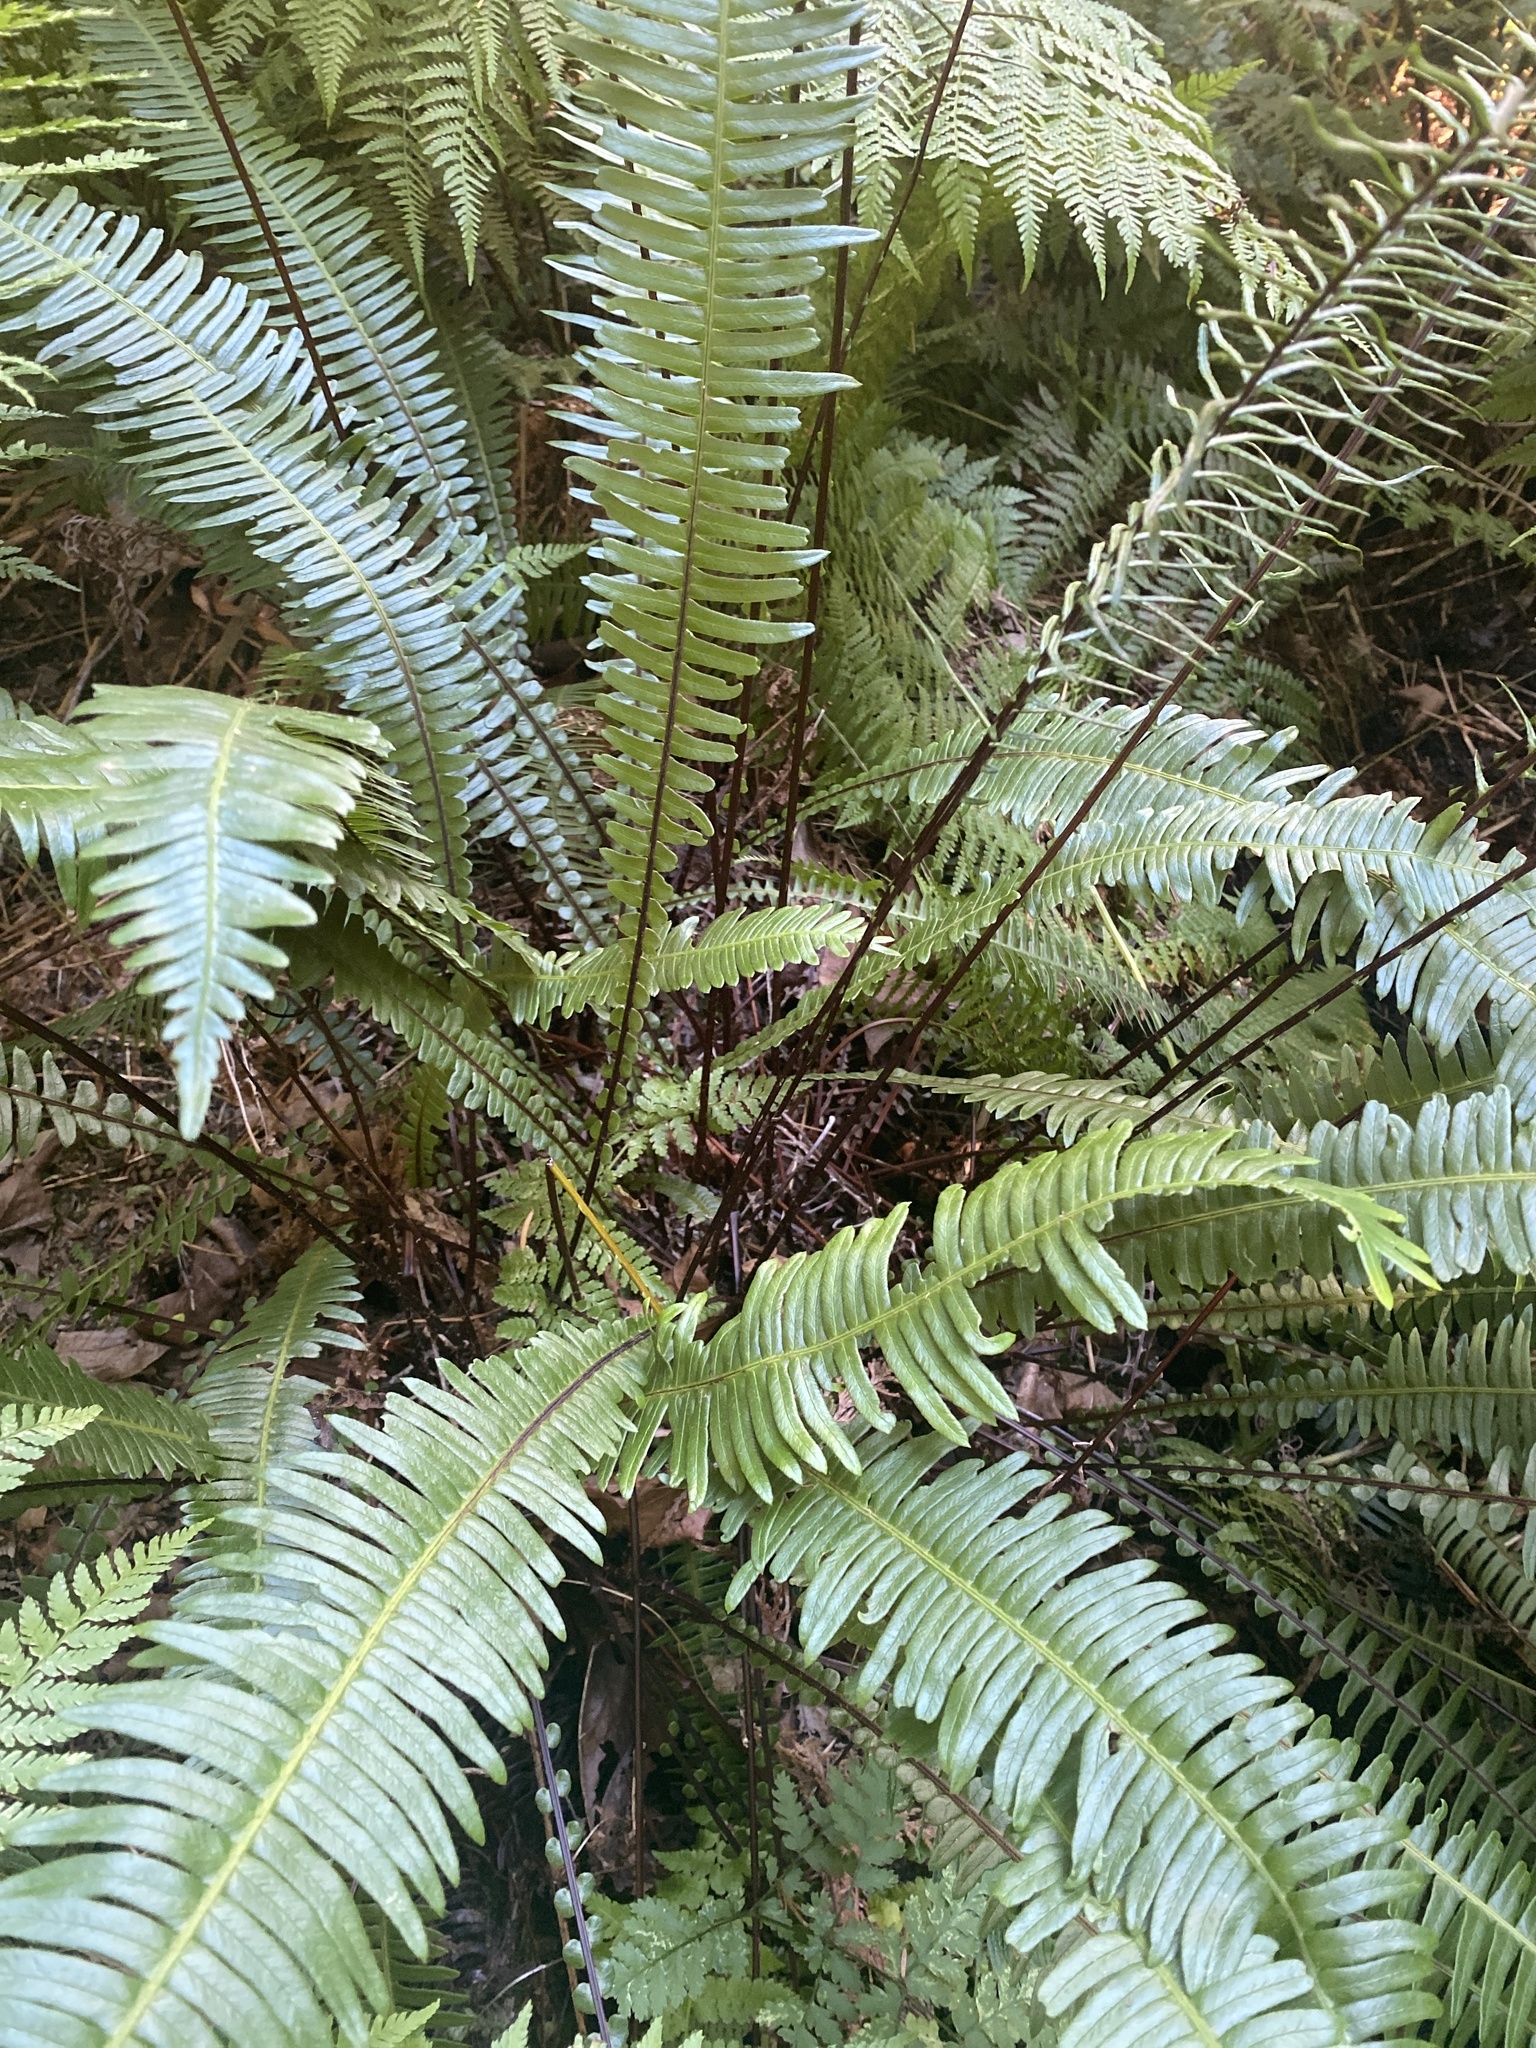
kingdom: Plantae
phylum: Tracheophyta
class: Polypodiopsida
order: Polypodiales
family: Blechnaceae
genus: Struthiopteris
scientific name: Struthiopteris spicant
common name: Deer fern
